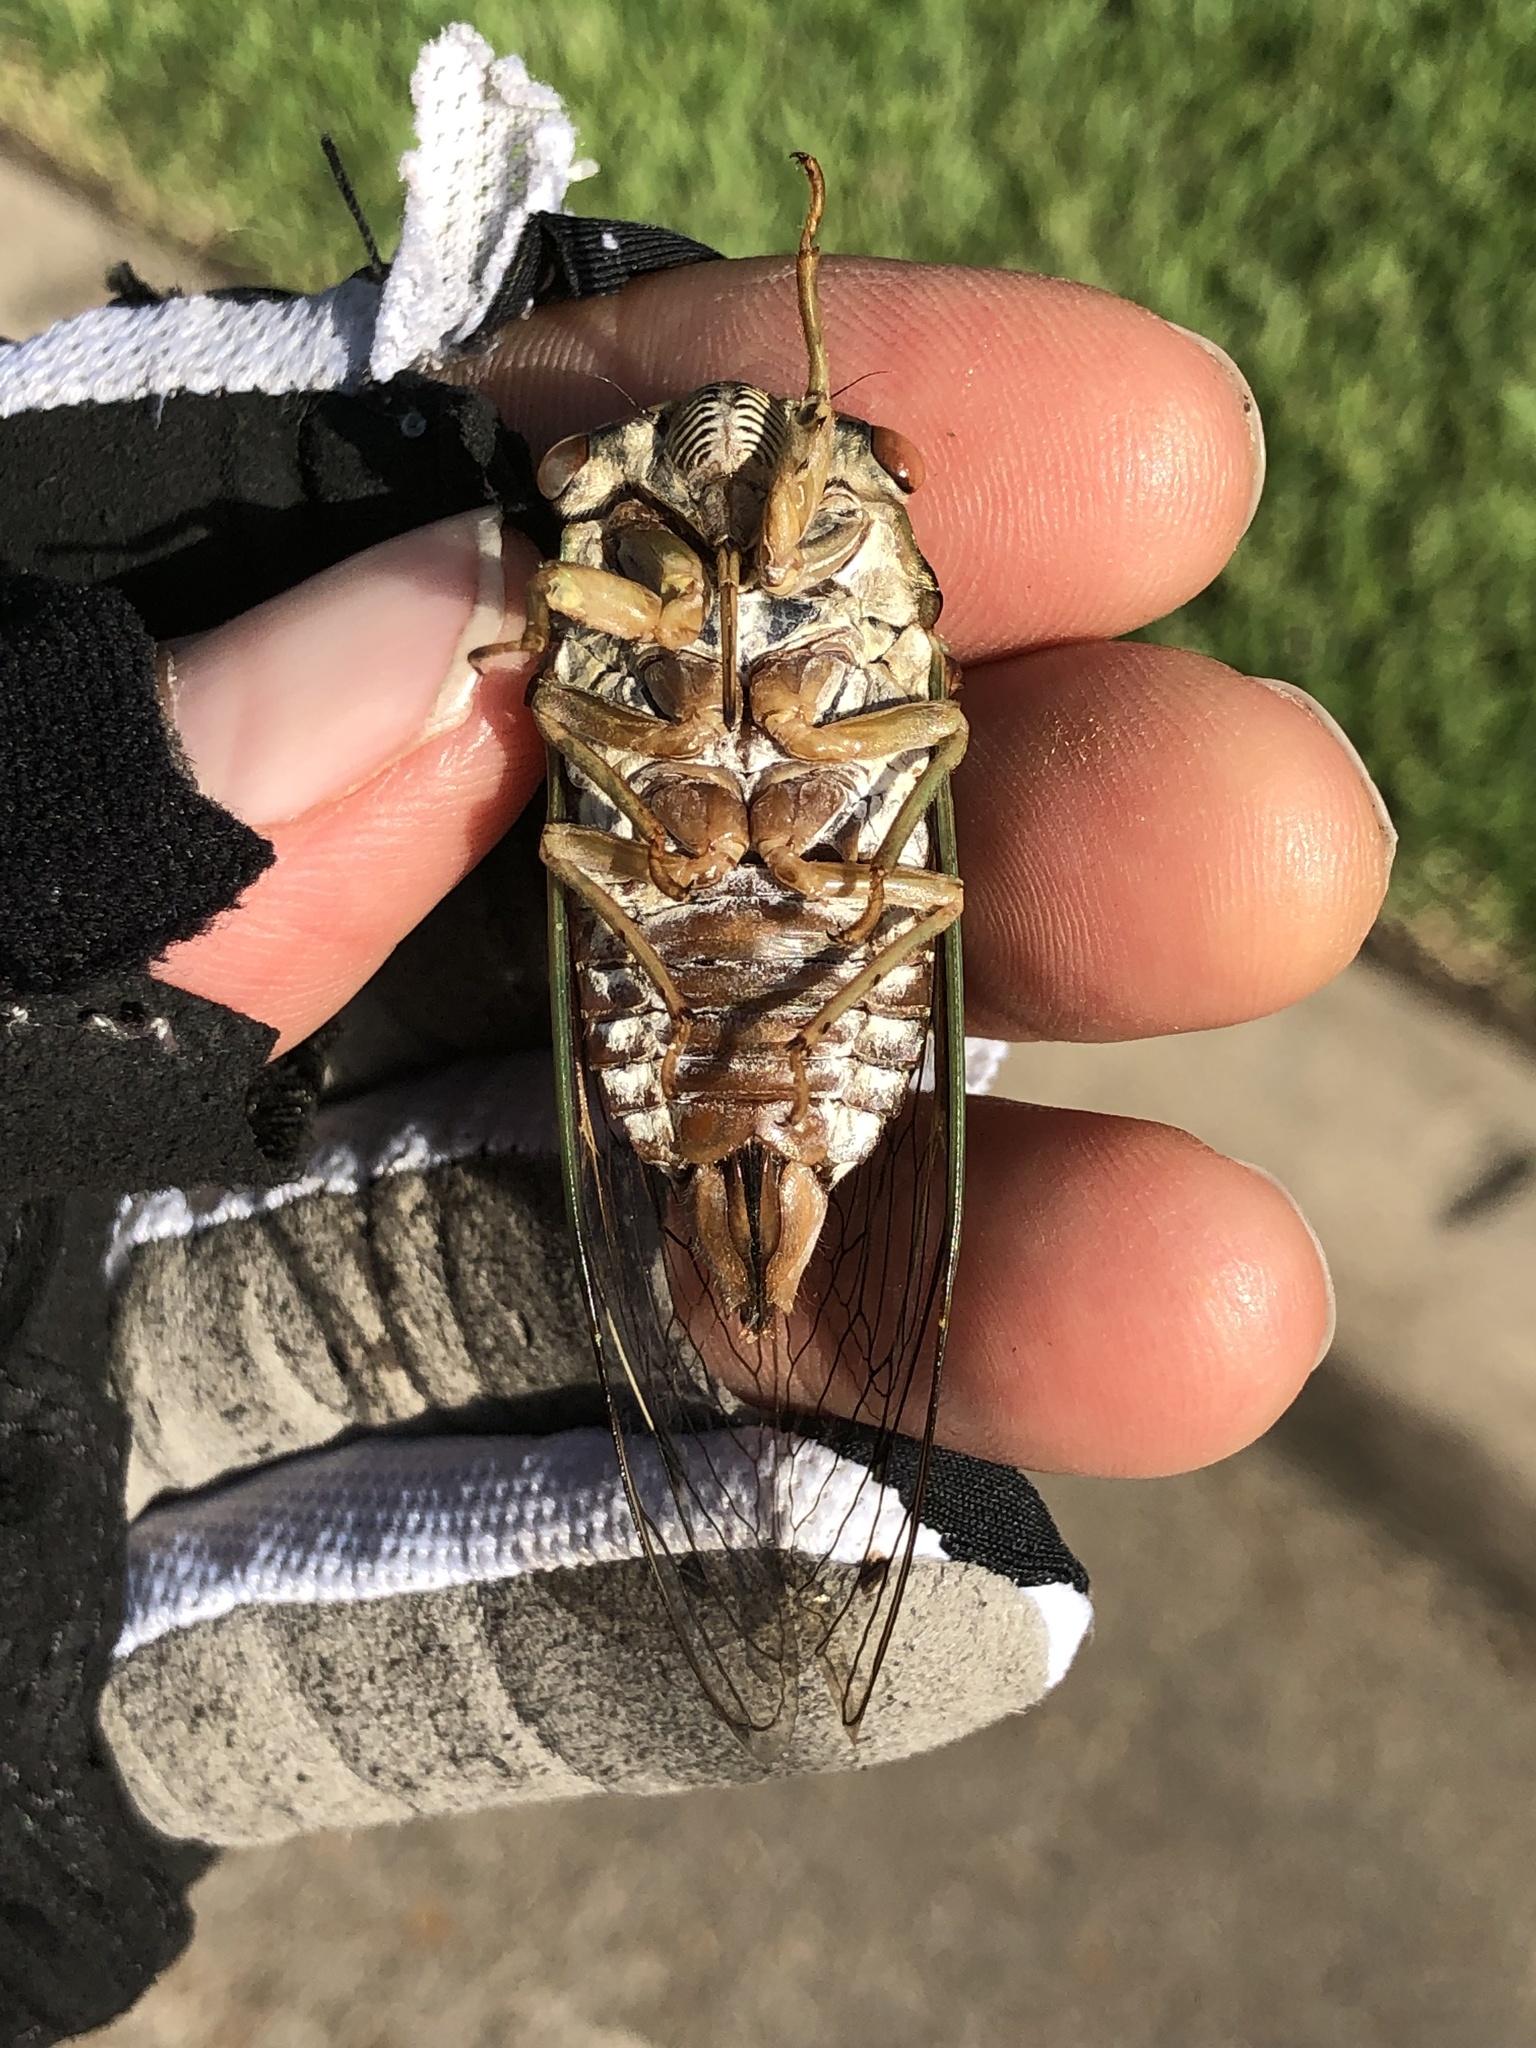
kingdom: Animalia
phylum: Arthropoda
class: Insecta
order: Hemiptera
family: Cicadidae
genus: Megatibicen
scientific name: Megatibicen resh
